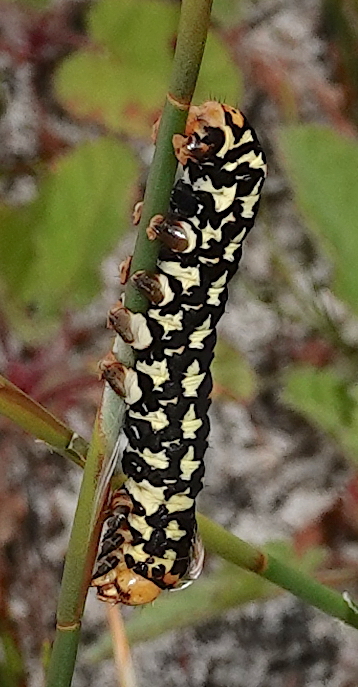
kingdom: Animalia
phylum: Arthropoda
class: Insecta
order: Lepidoptera
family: Noctuidae
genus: Diaphone
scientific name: Diaphone eumela
